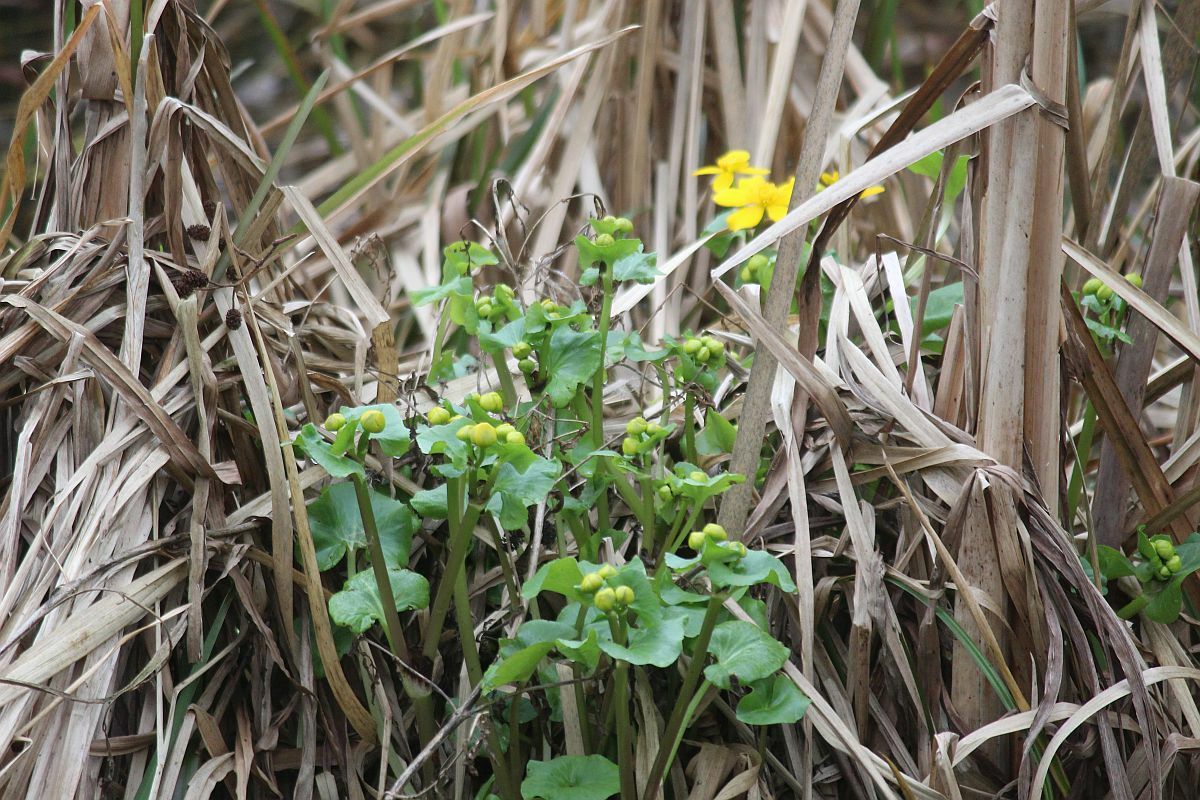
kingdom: Plantae
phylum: Tracheophyta
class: Magnoliopsida
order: Ranunculales
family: Ranunculaceae
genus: Caltha
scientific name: Caltha palustris
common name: Marsh marigold
